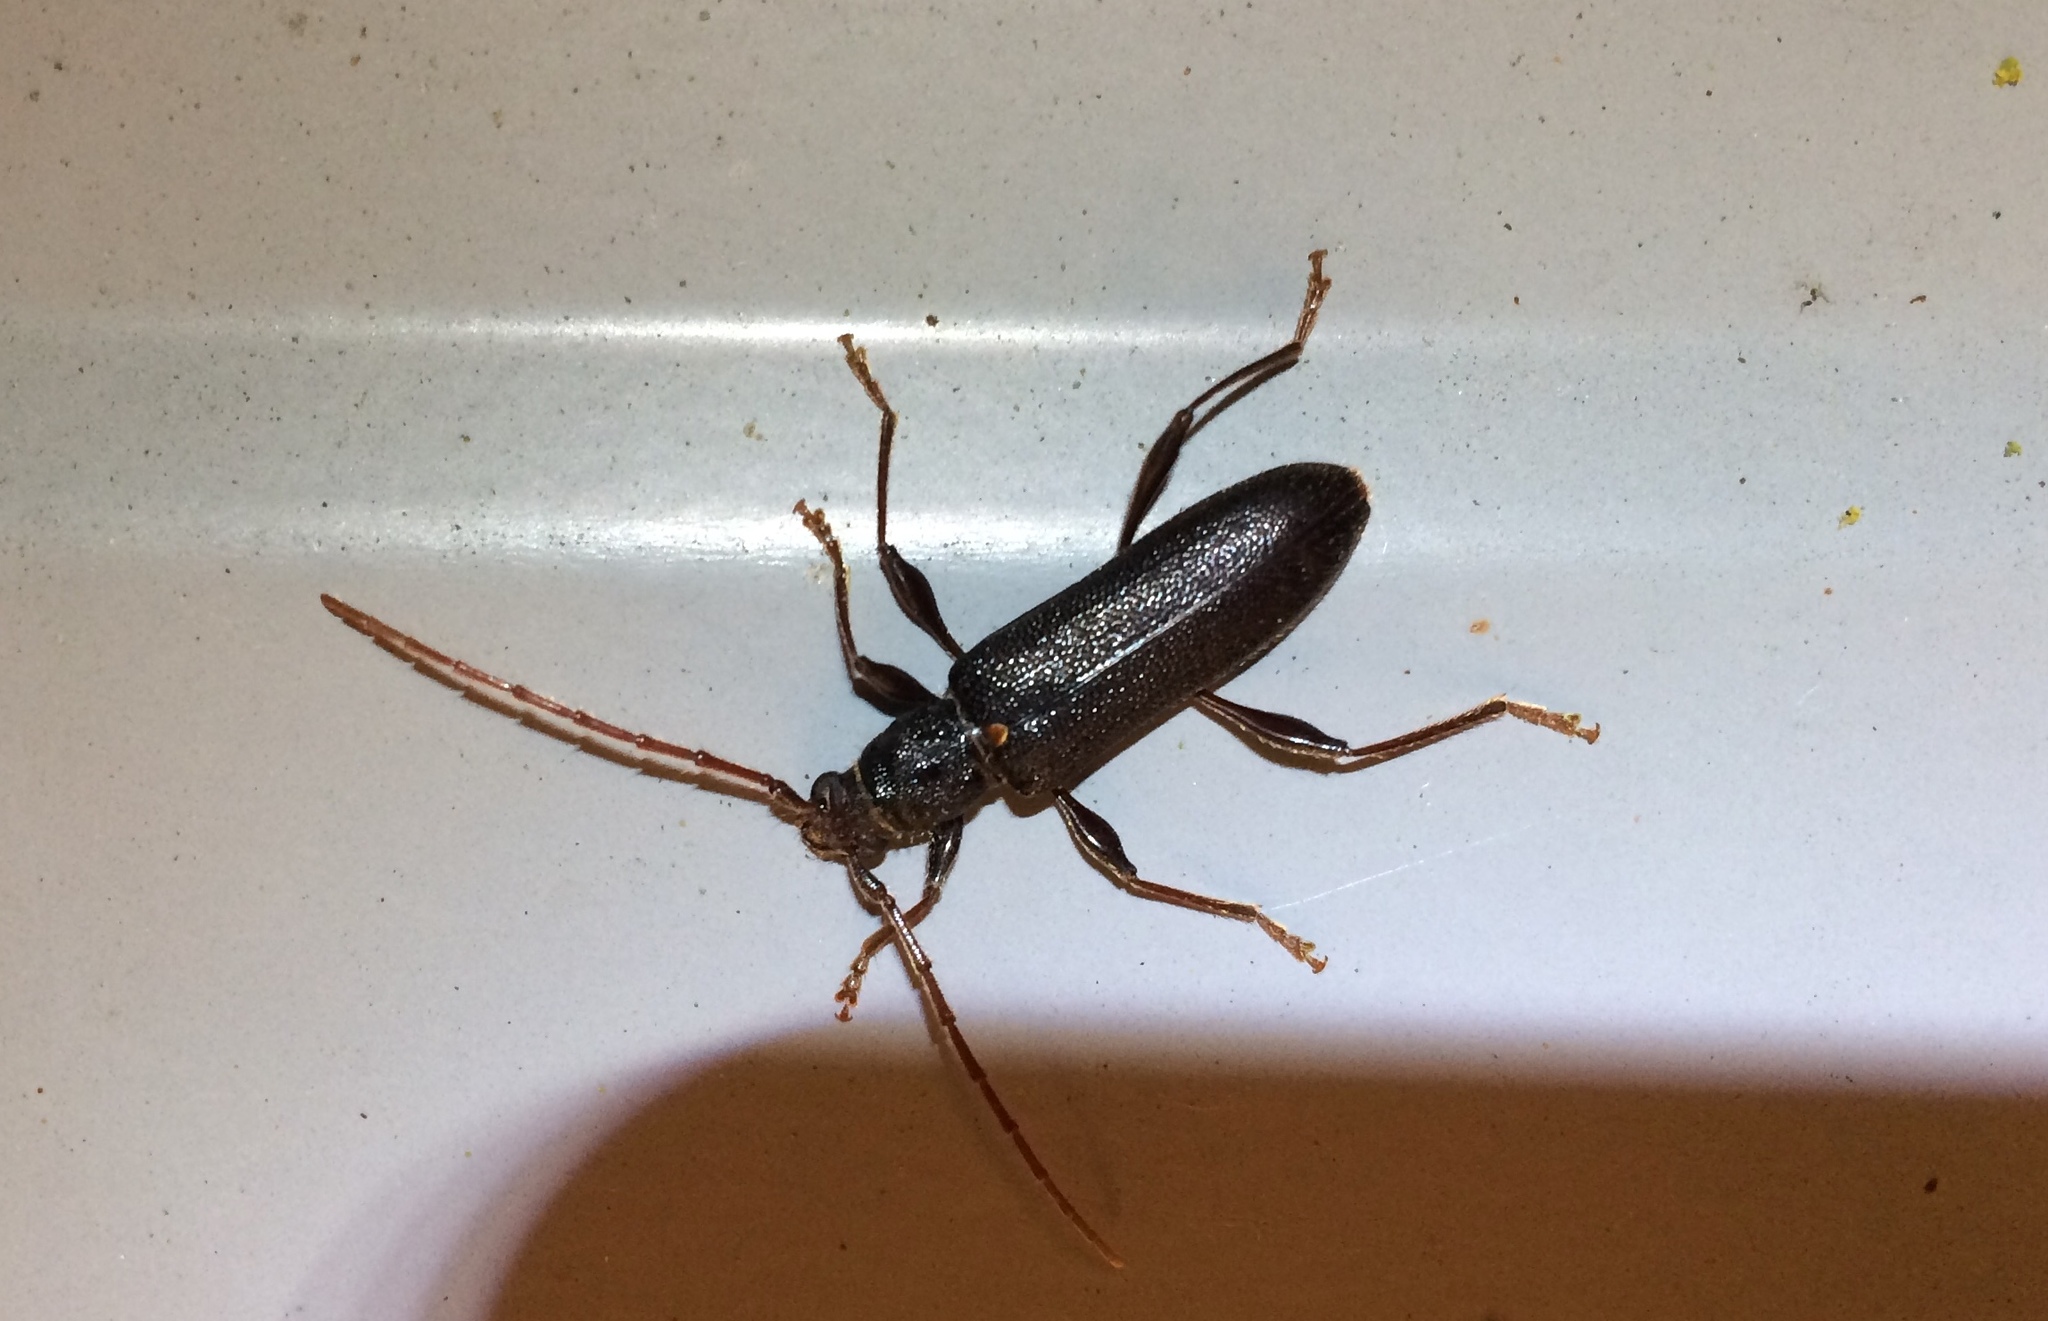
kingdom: Animalia
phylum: Arthropoda
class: Insecta
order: Coleoptera
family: Cerambycidae
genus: Callidiopis
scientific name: Callidiopis scutellaris
